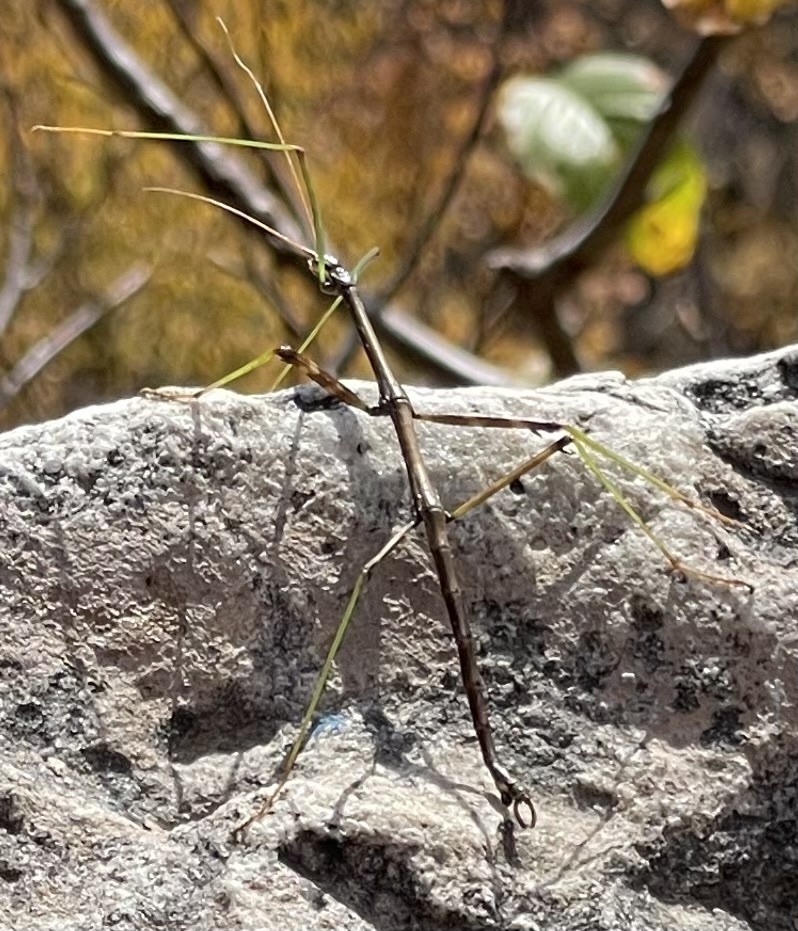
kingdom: Animalia
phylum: Arthropoda
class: Insecta
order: Phasmida
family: Diapheromeridae
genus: Diapheromera
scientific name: Diapheromera femorata
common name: Common american walkingstick
